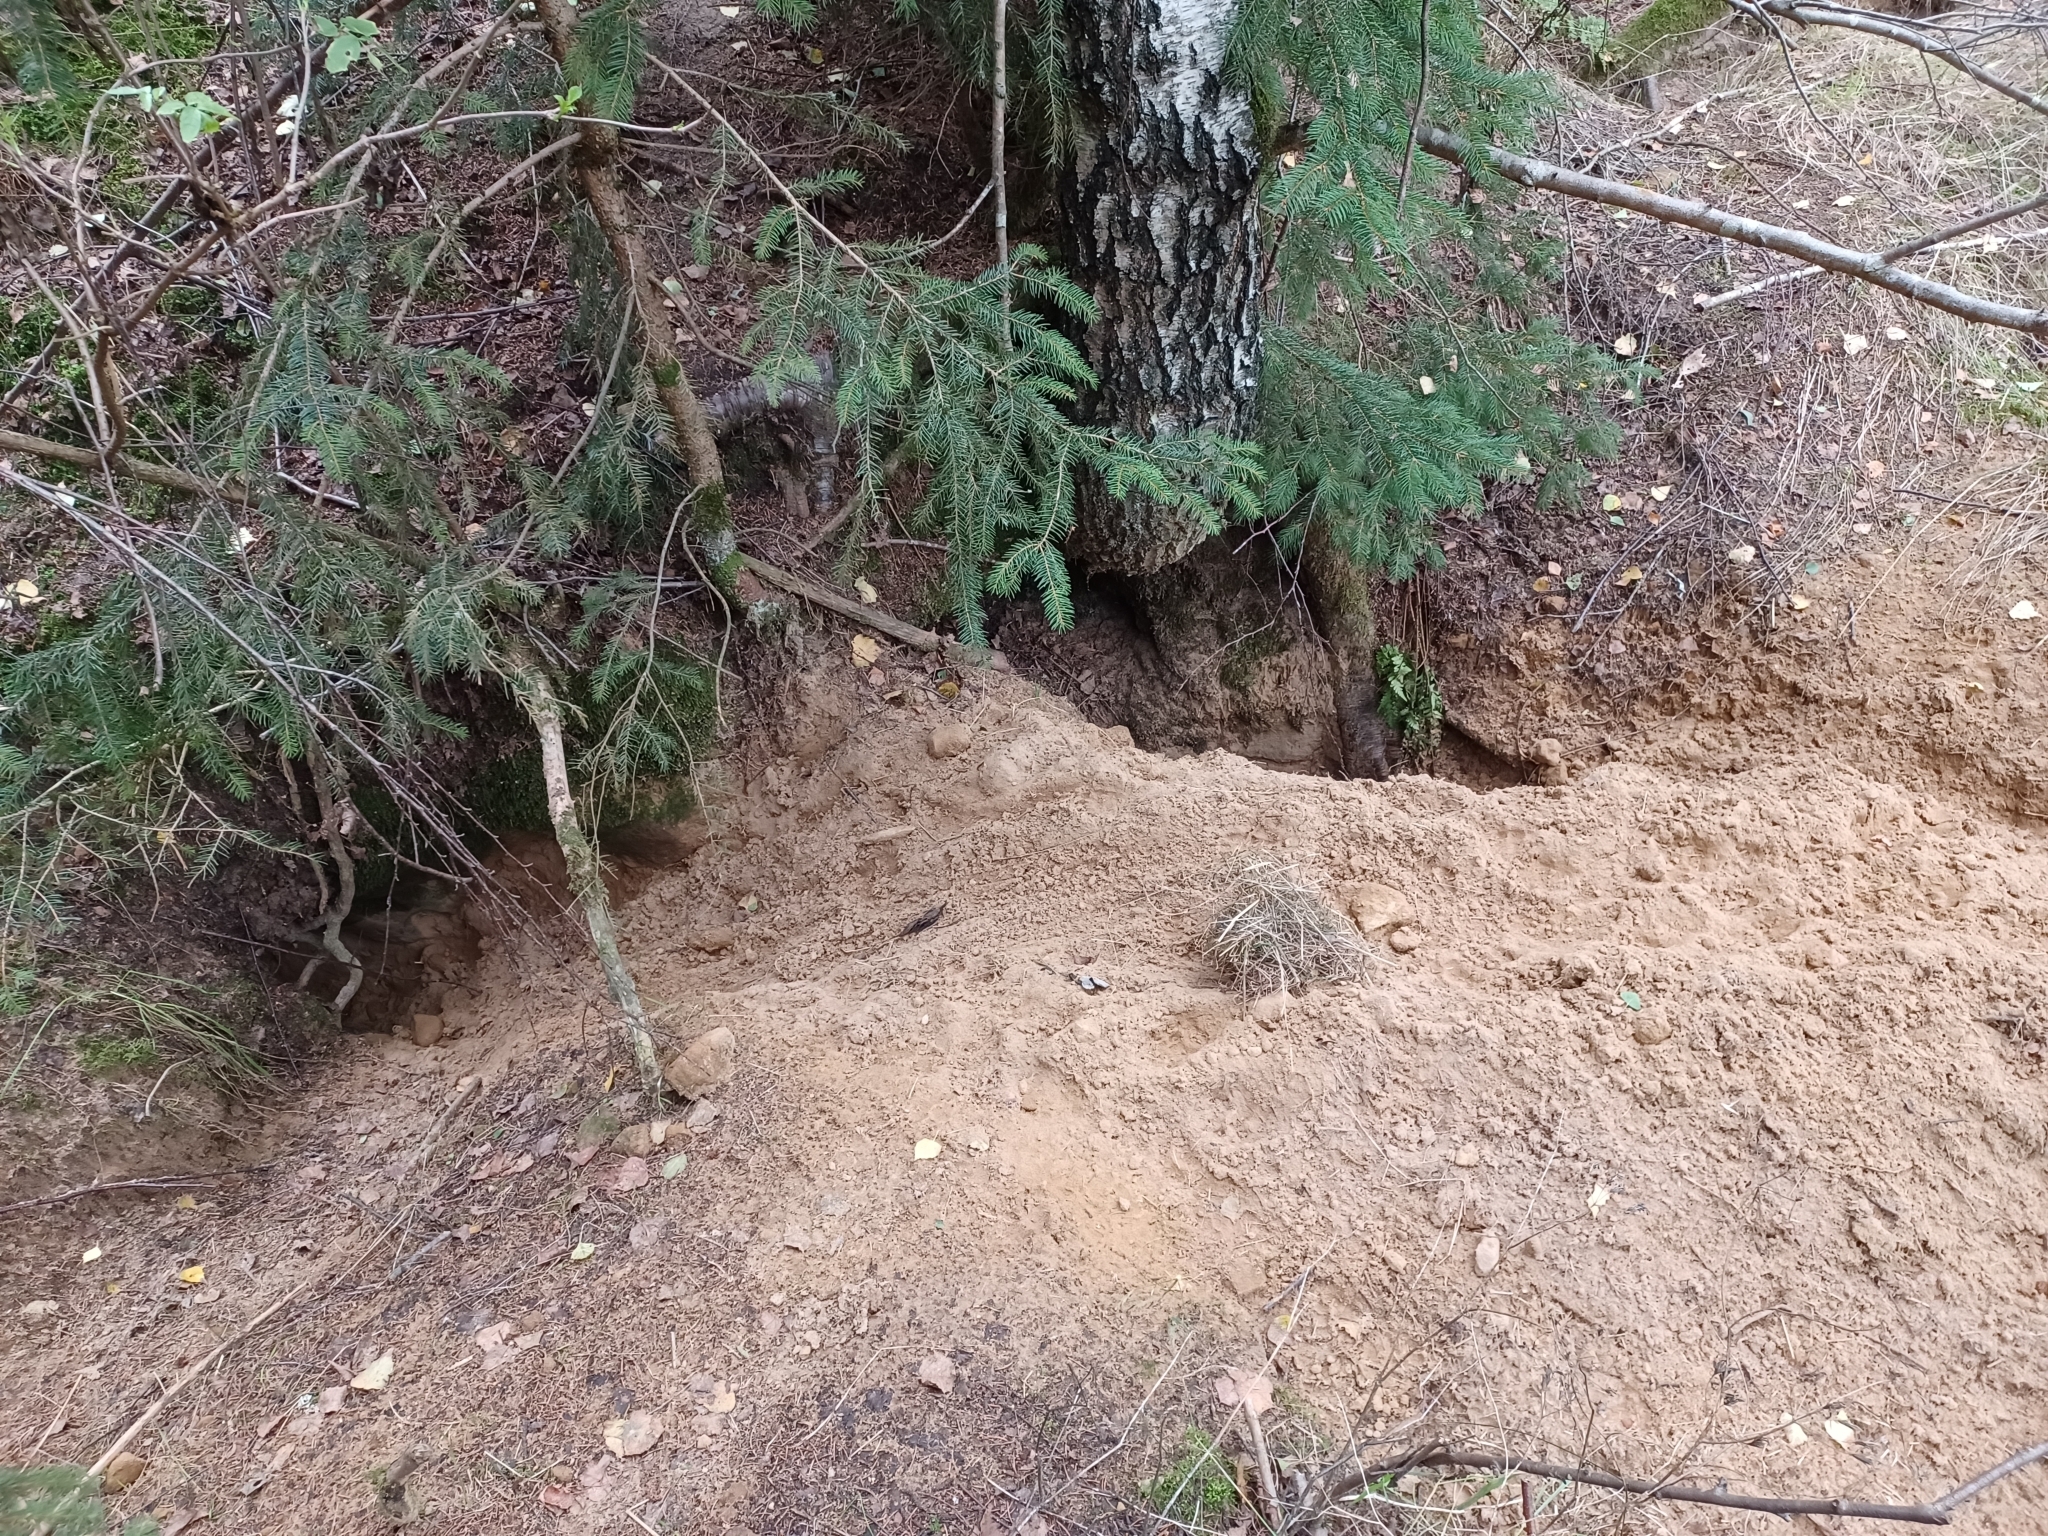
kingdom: Animalia
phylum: Chordata
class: Mammalia
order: Carnivora
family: Mustelidae
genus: Meles
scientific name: Meles meles
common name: Eurasian badger
